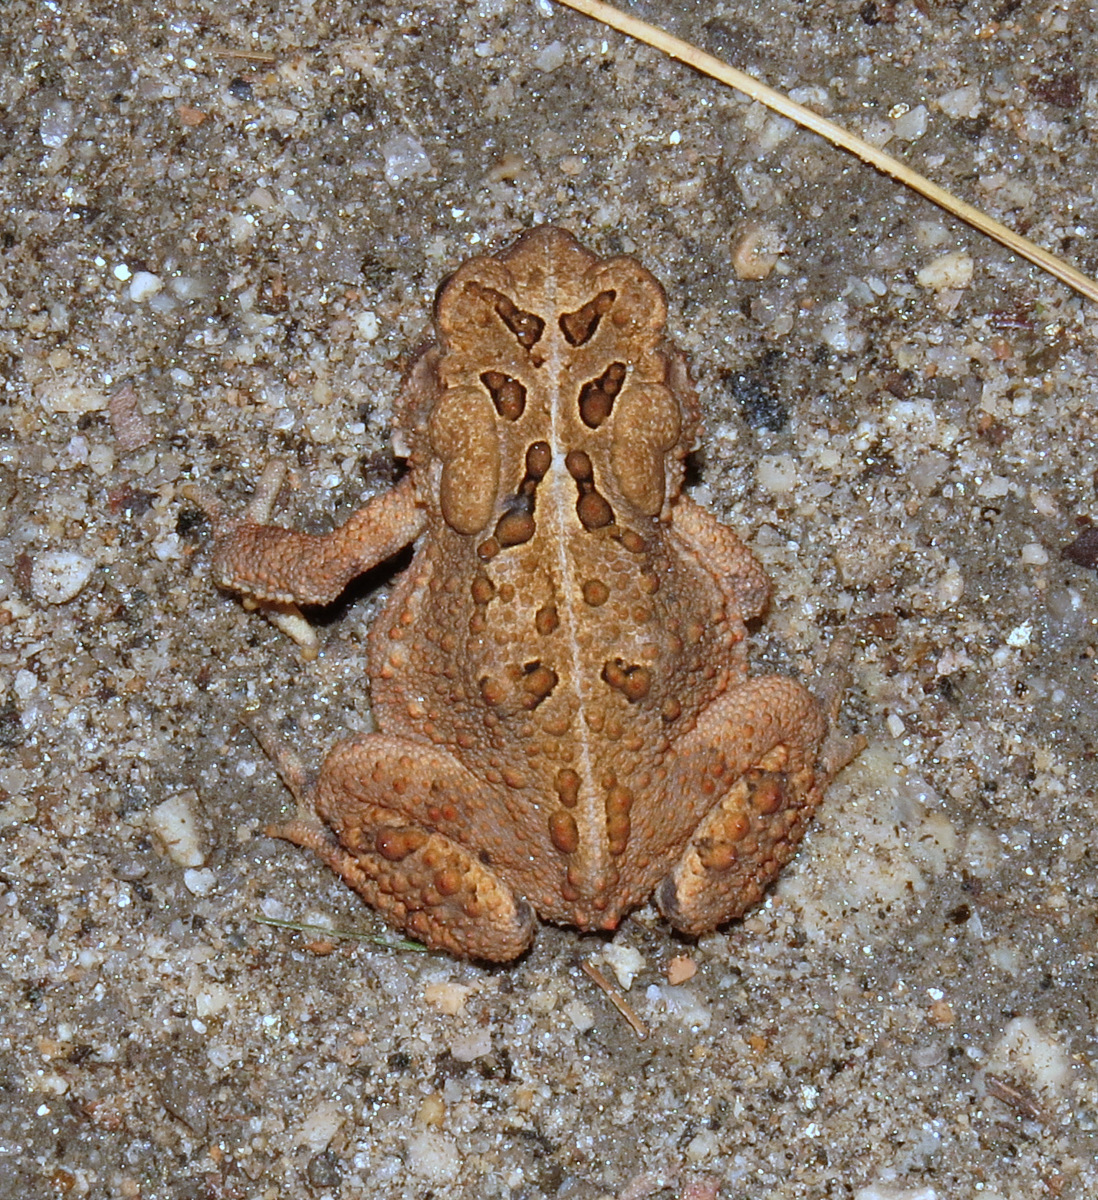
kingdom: Animalia
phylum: Chordata
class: Amphibia
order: Anura
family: Bufonidae
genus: Anaxyrus
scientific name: Anaxyrus americanus
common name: American toad
